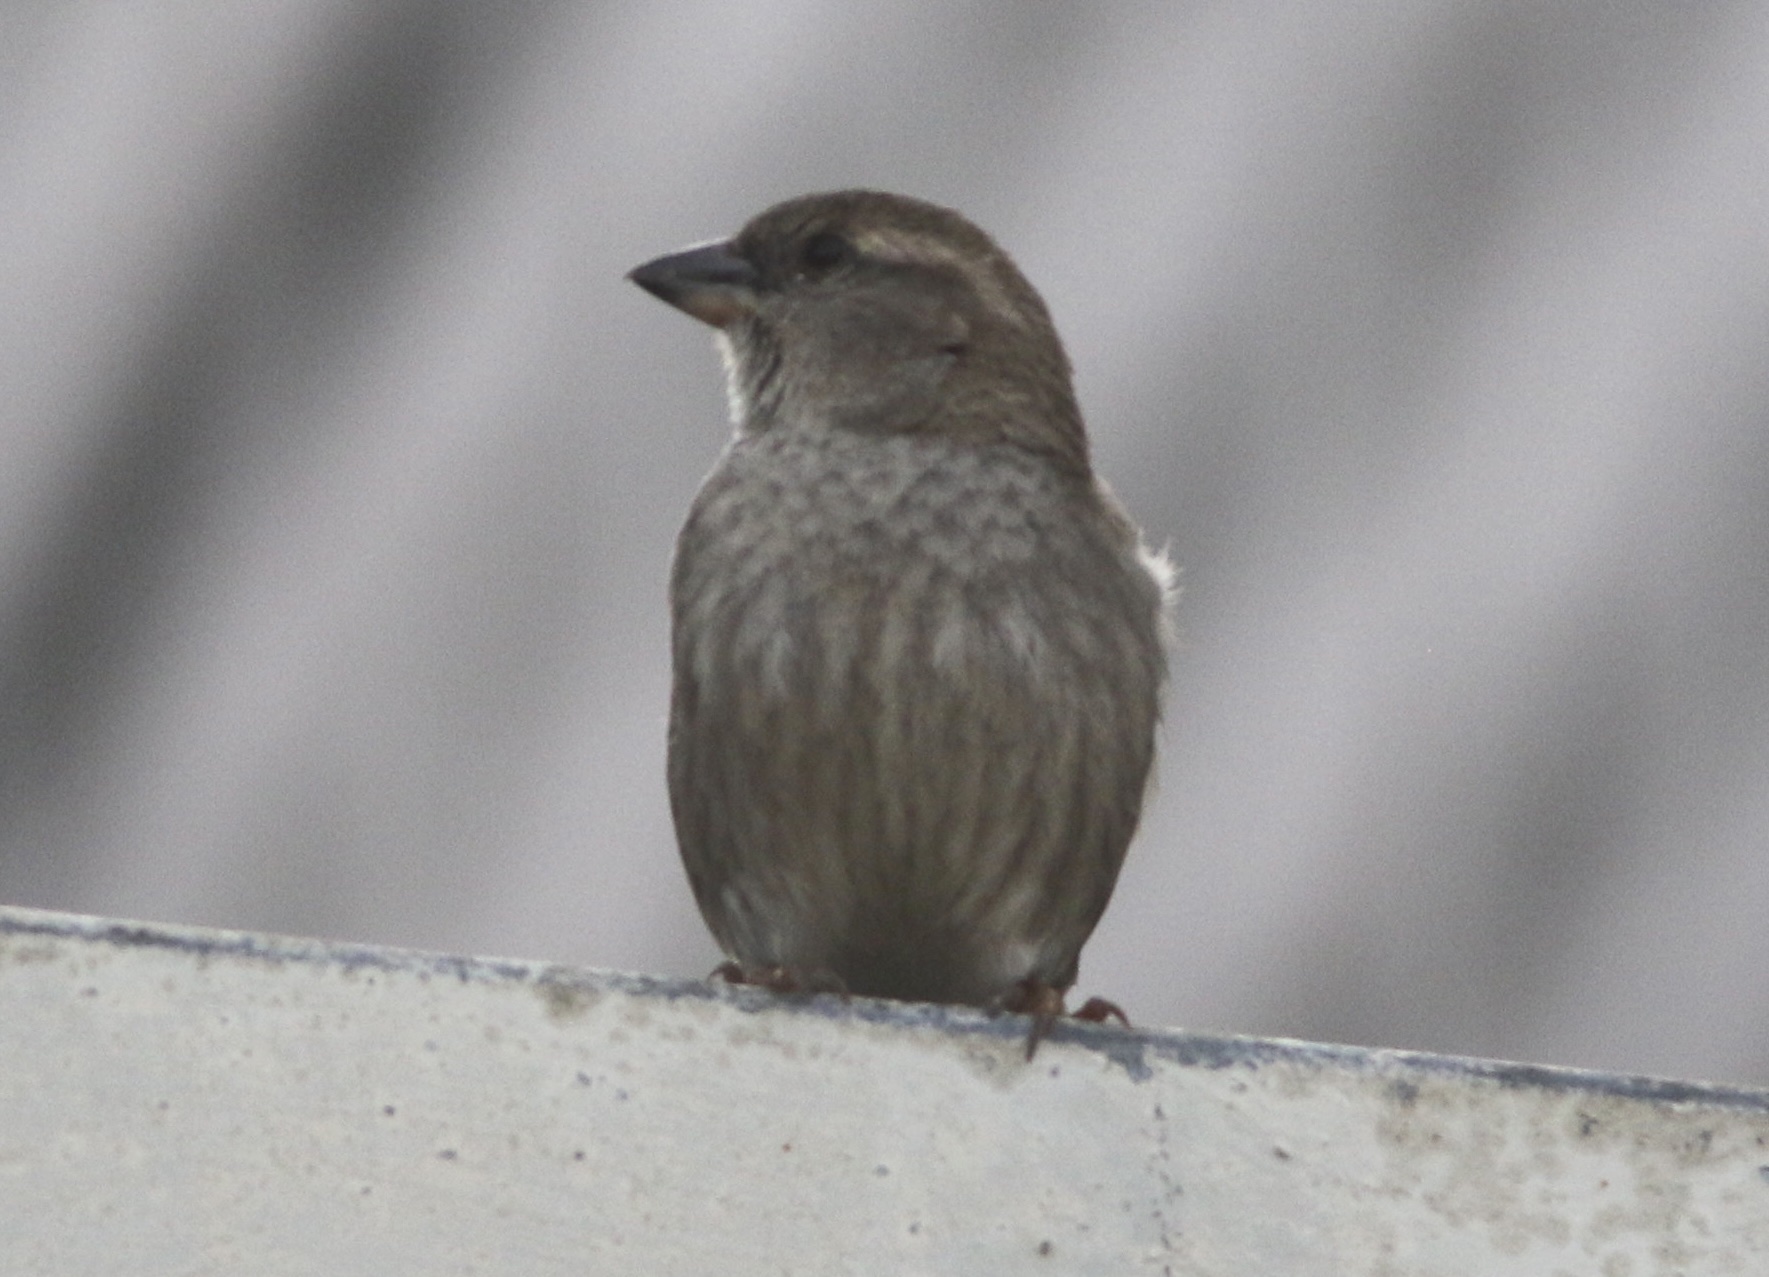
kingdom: Animalia
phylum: Chordata
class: Aves
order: Passeriformes
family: Passeridae
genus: Passer
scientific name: Passer domesticus
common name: House sparrow
